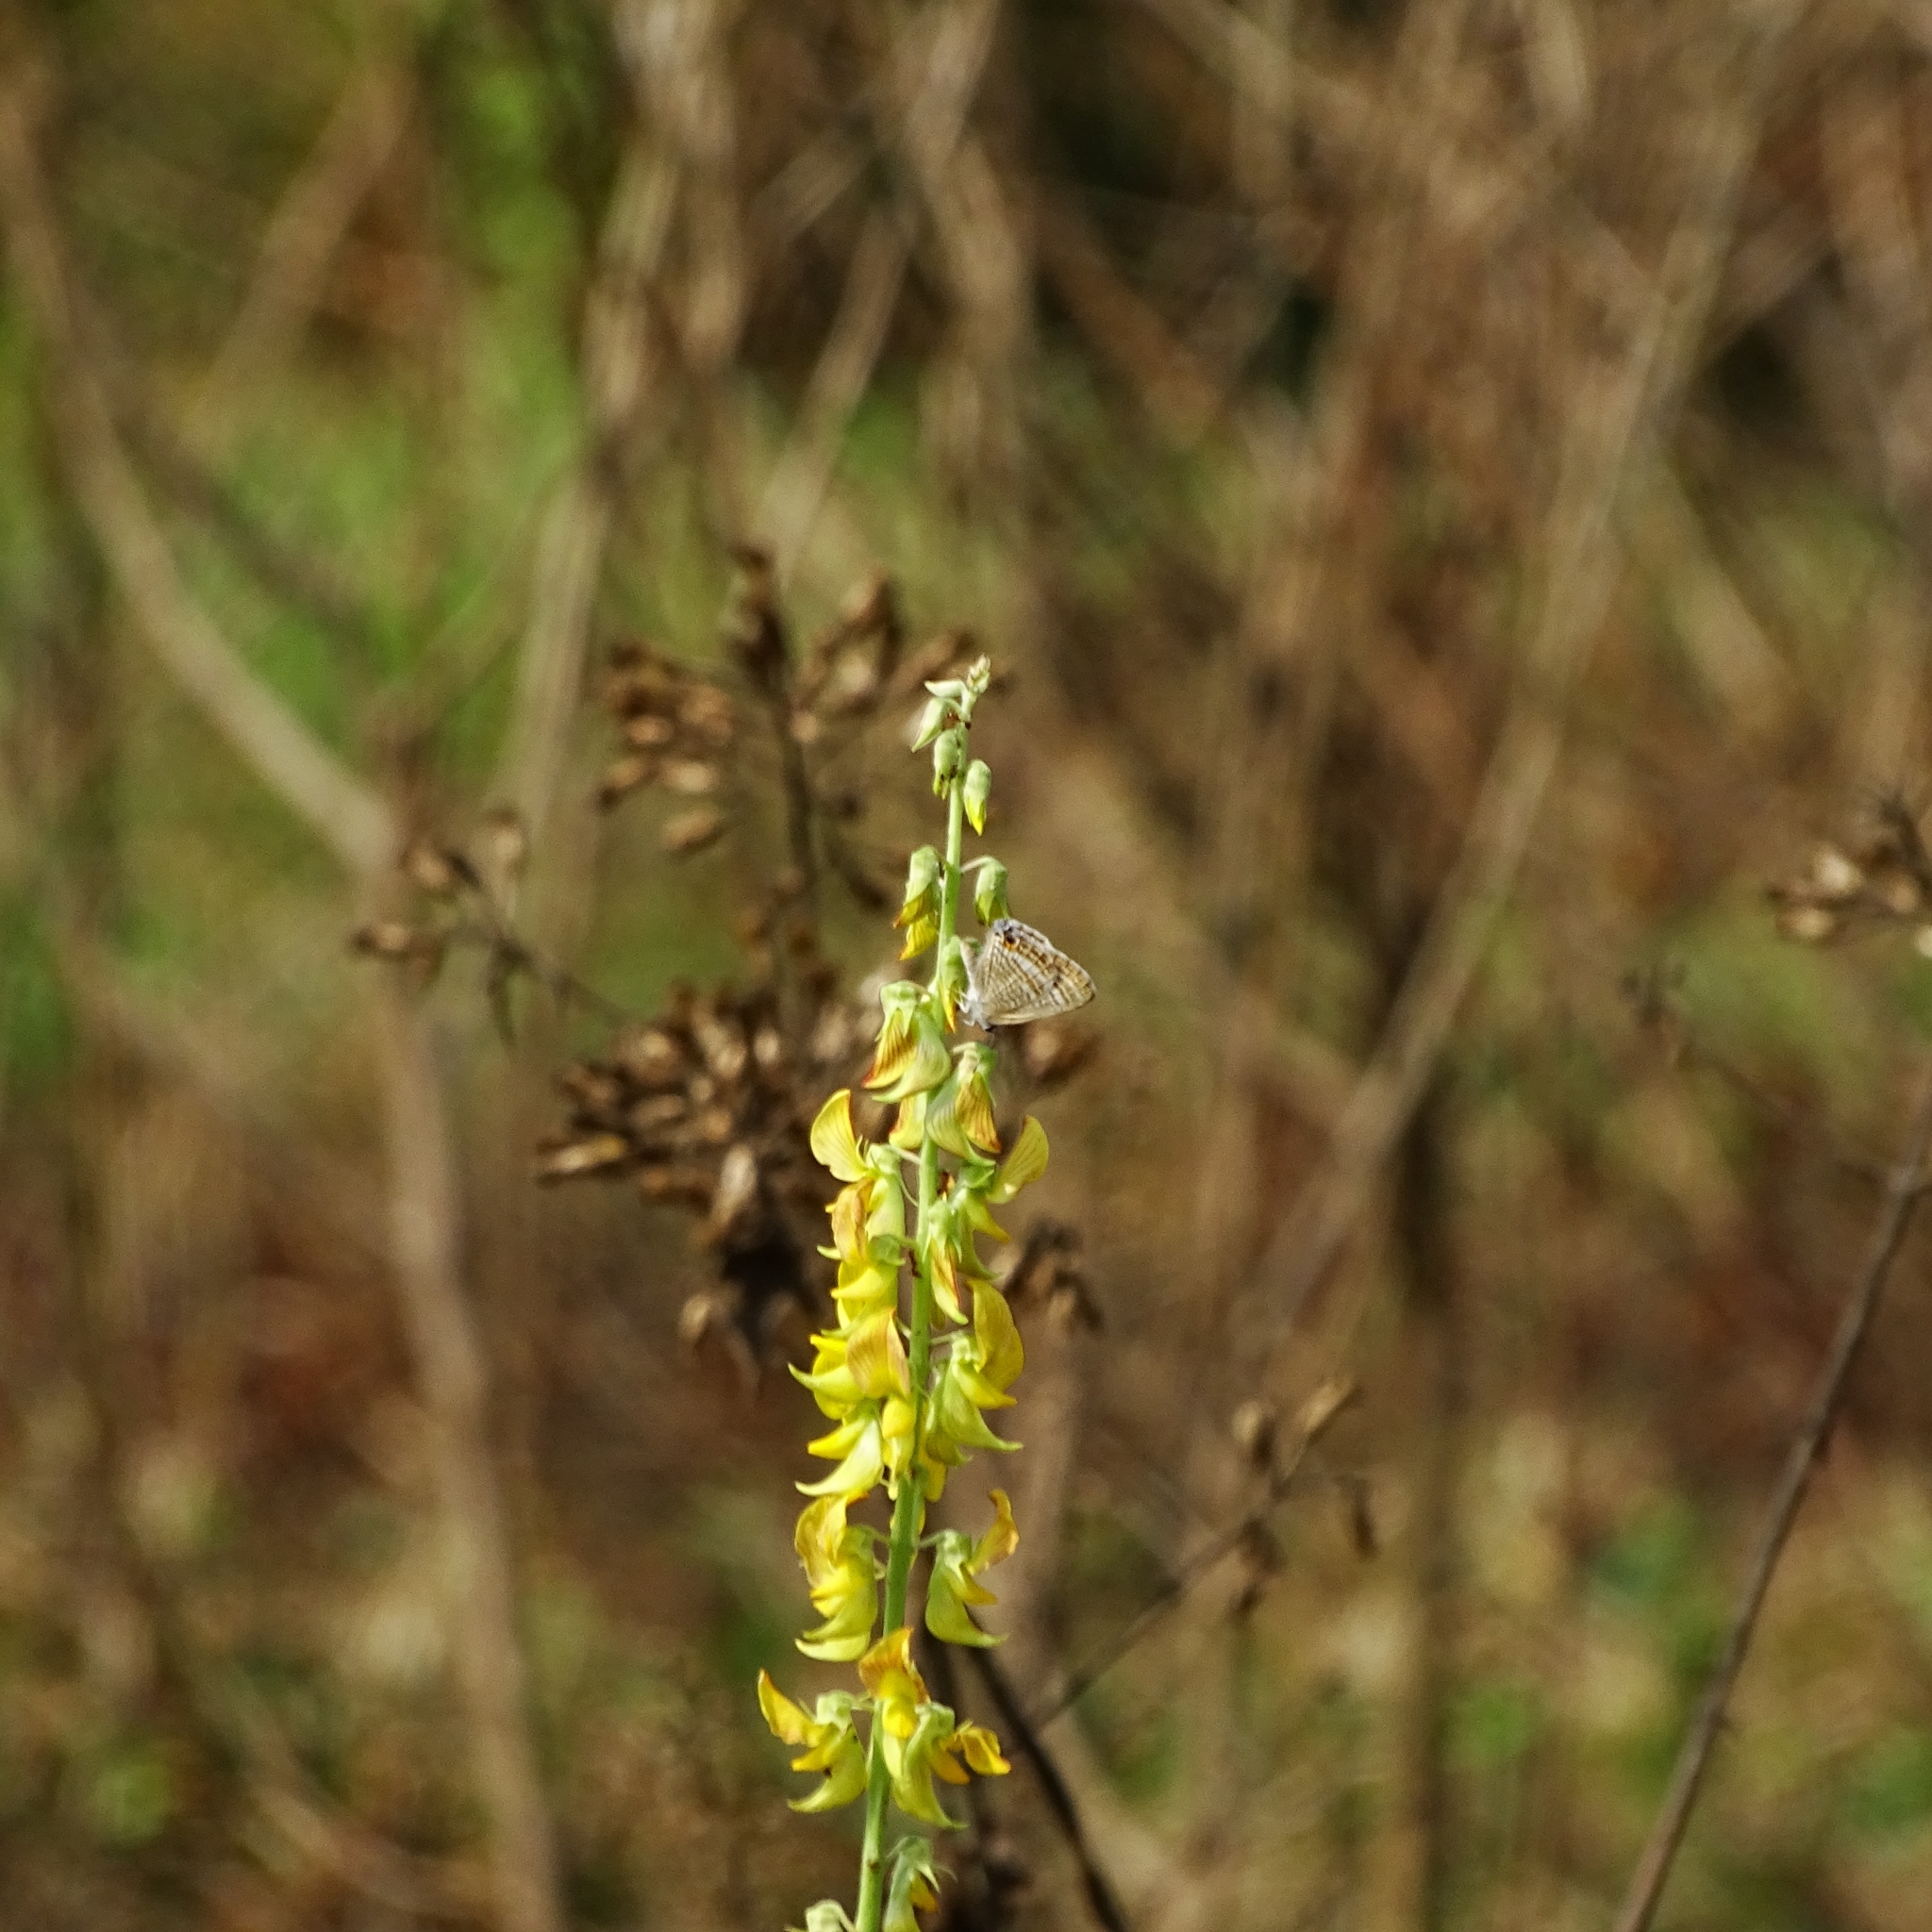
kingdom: Animalia
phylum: Arthropoda
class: Insecta
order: Lepidoptera
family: Lycaenidae
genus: Lampides
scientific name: Lampides boeticus
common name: Long-tailed blue
